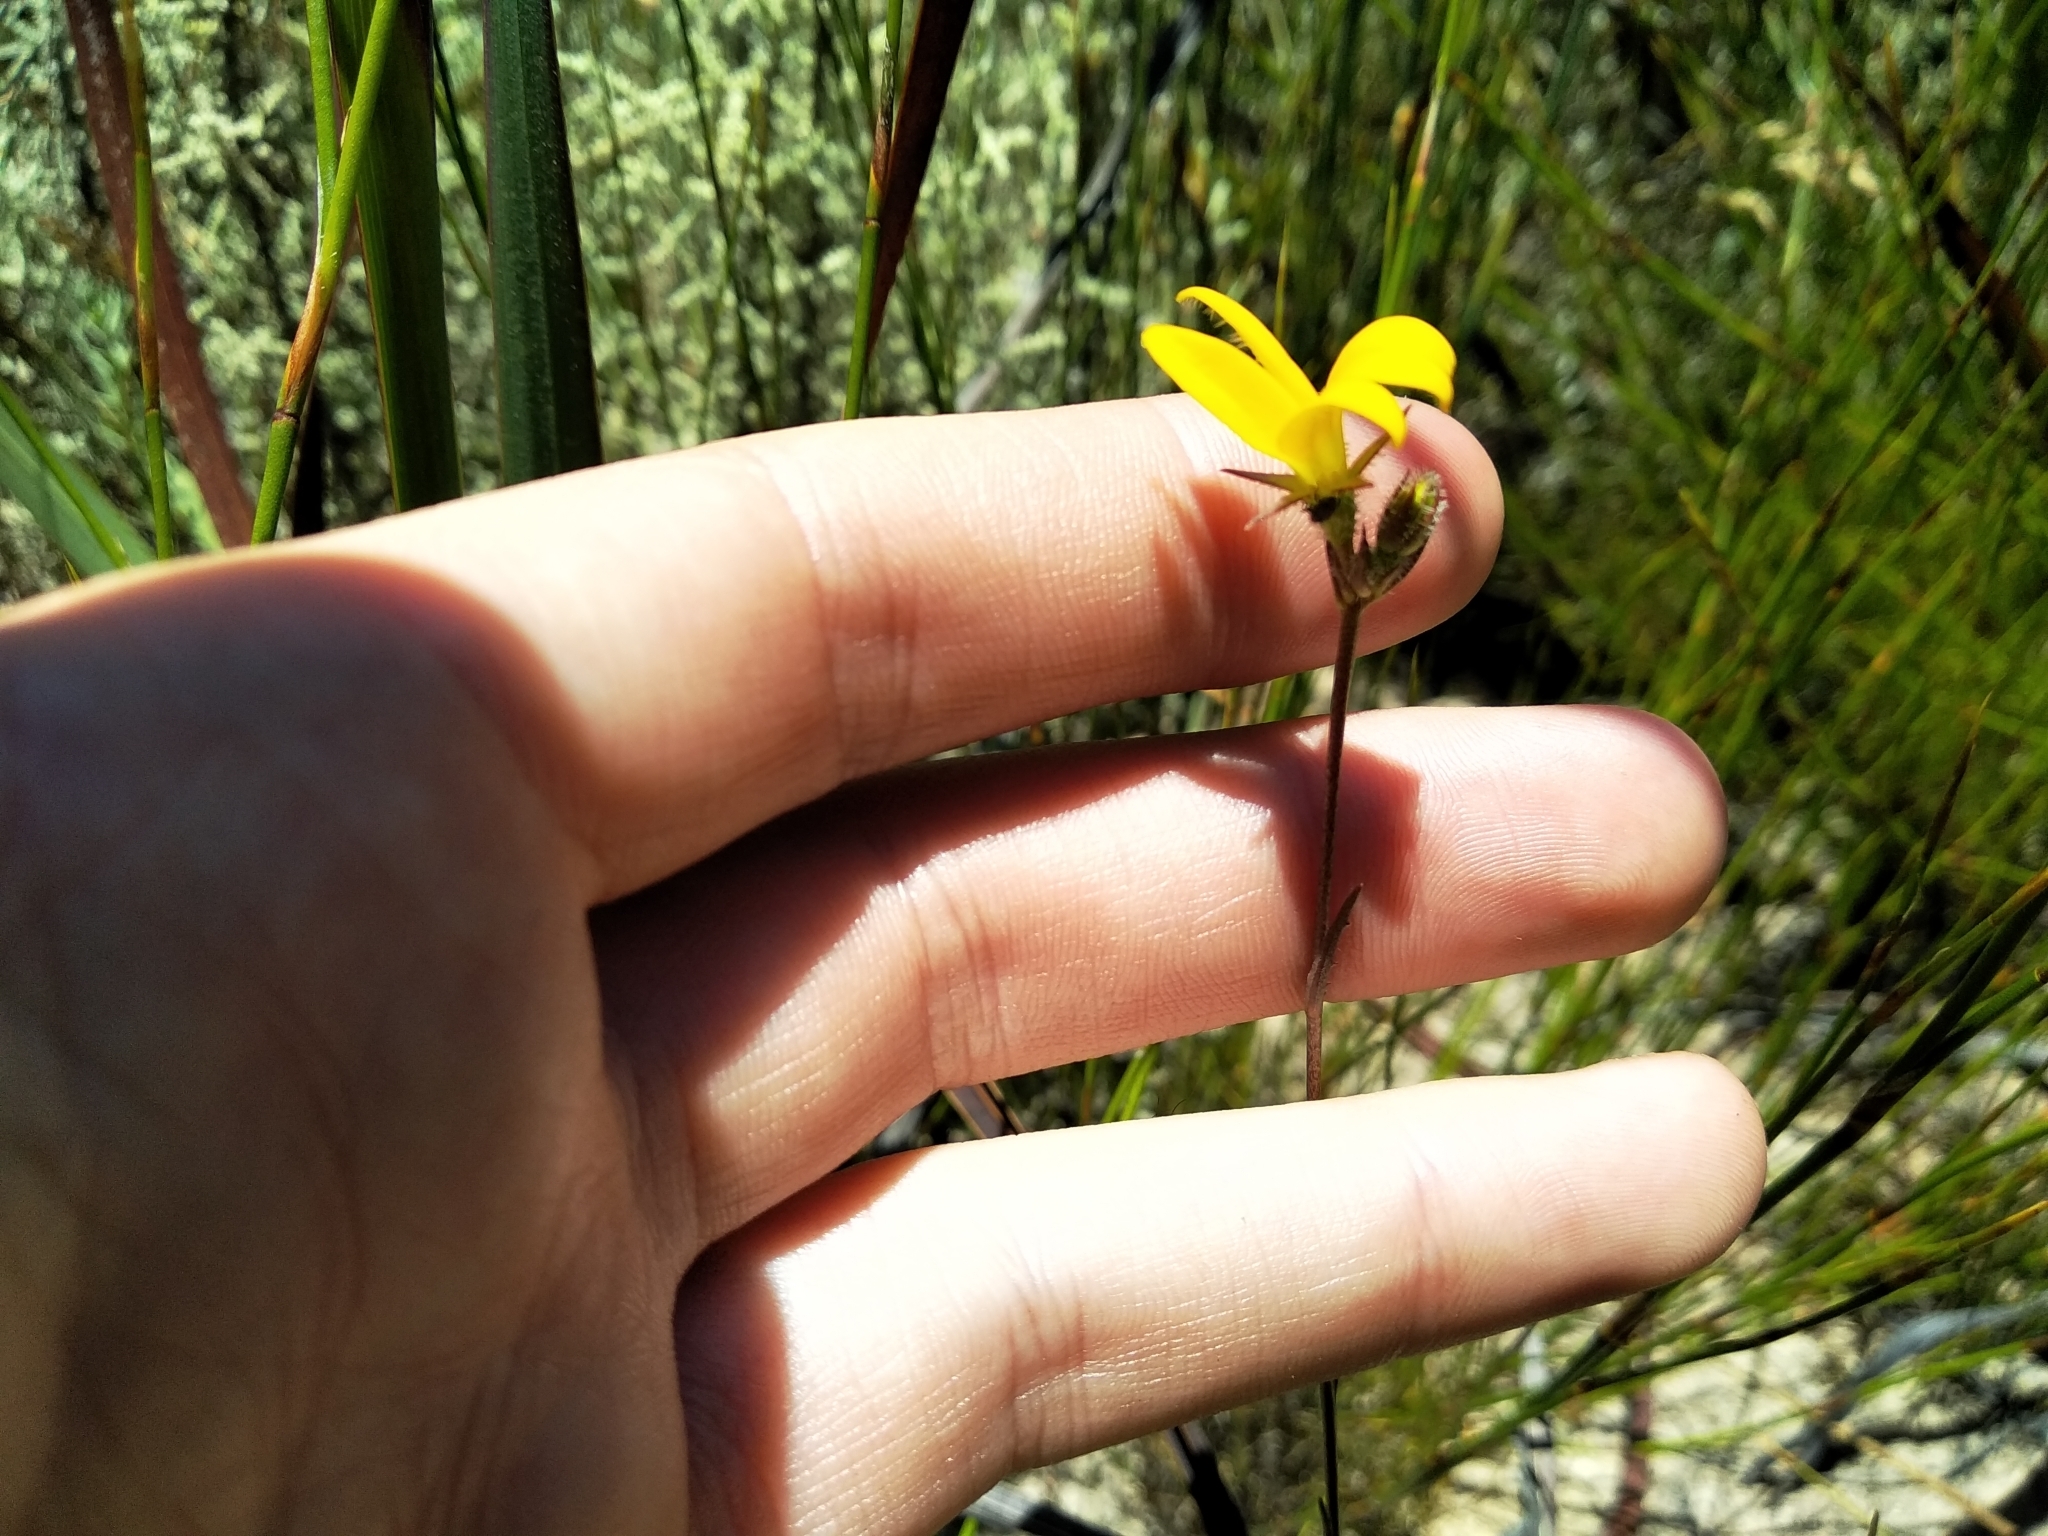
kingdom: Plantae
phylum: Tracheophyta
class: Magnoliopsida
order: Asterales
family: Campanulaceae
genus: Monopsis
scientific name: Monopsis lutea
